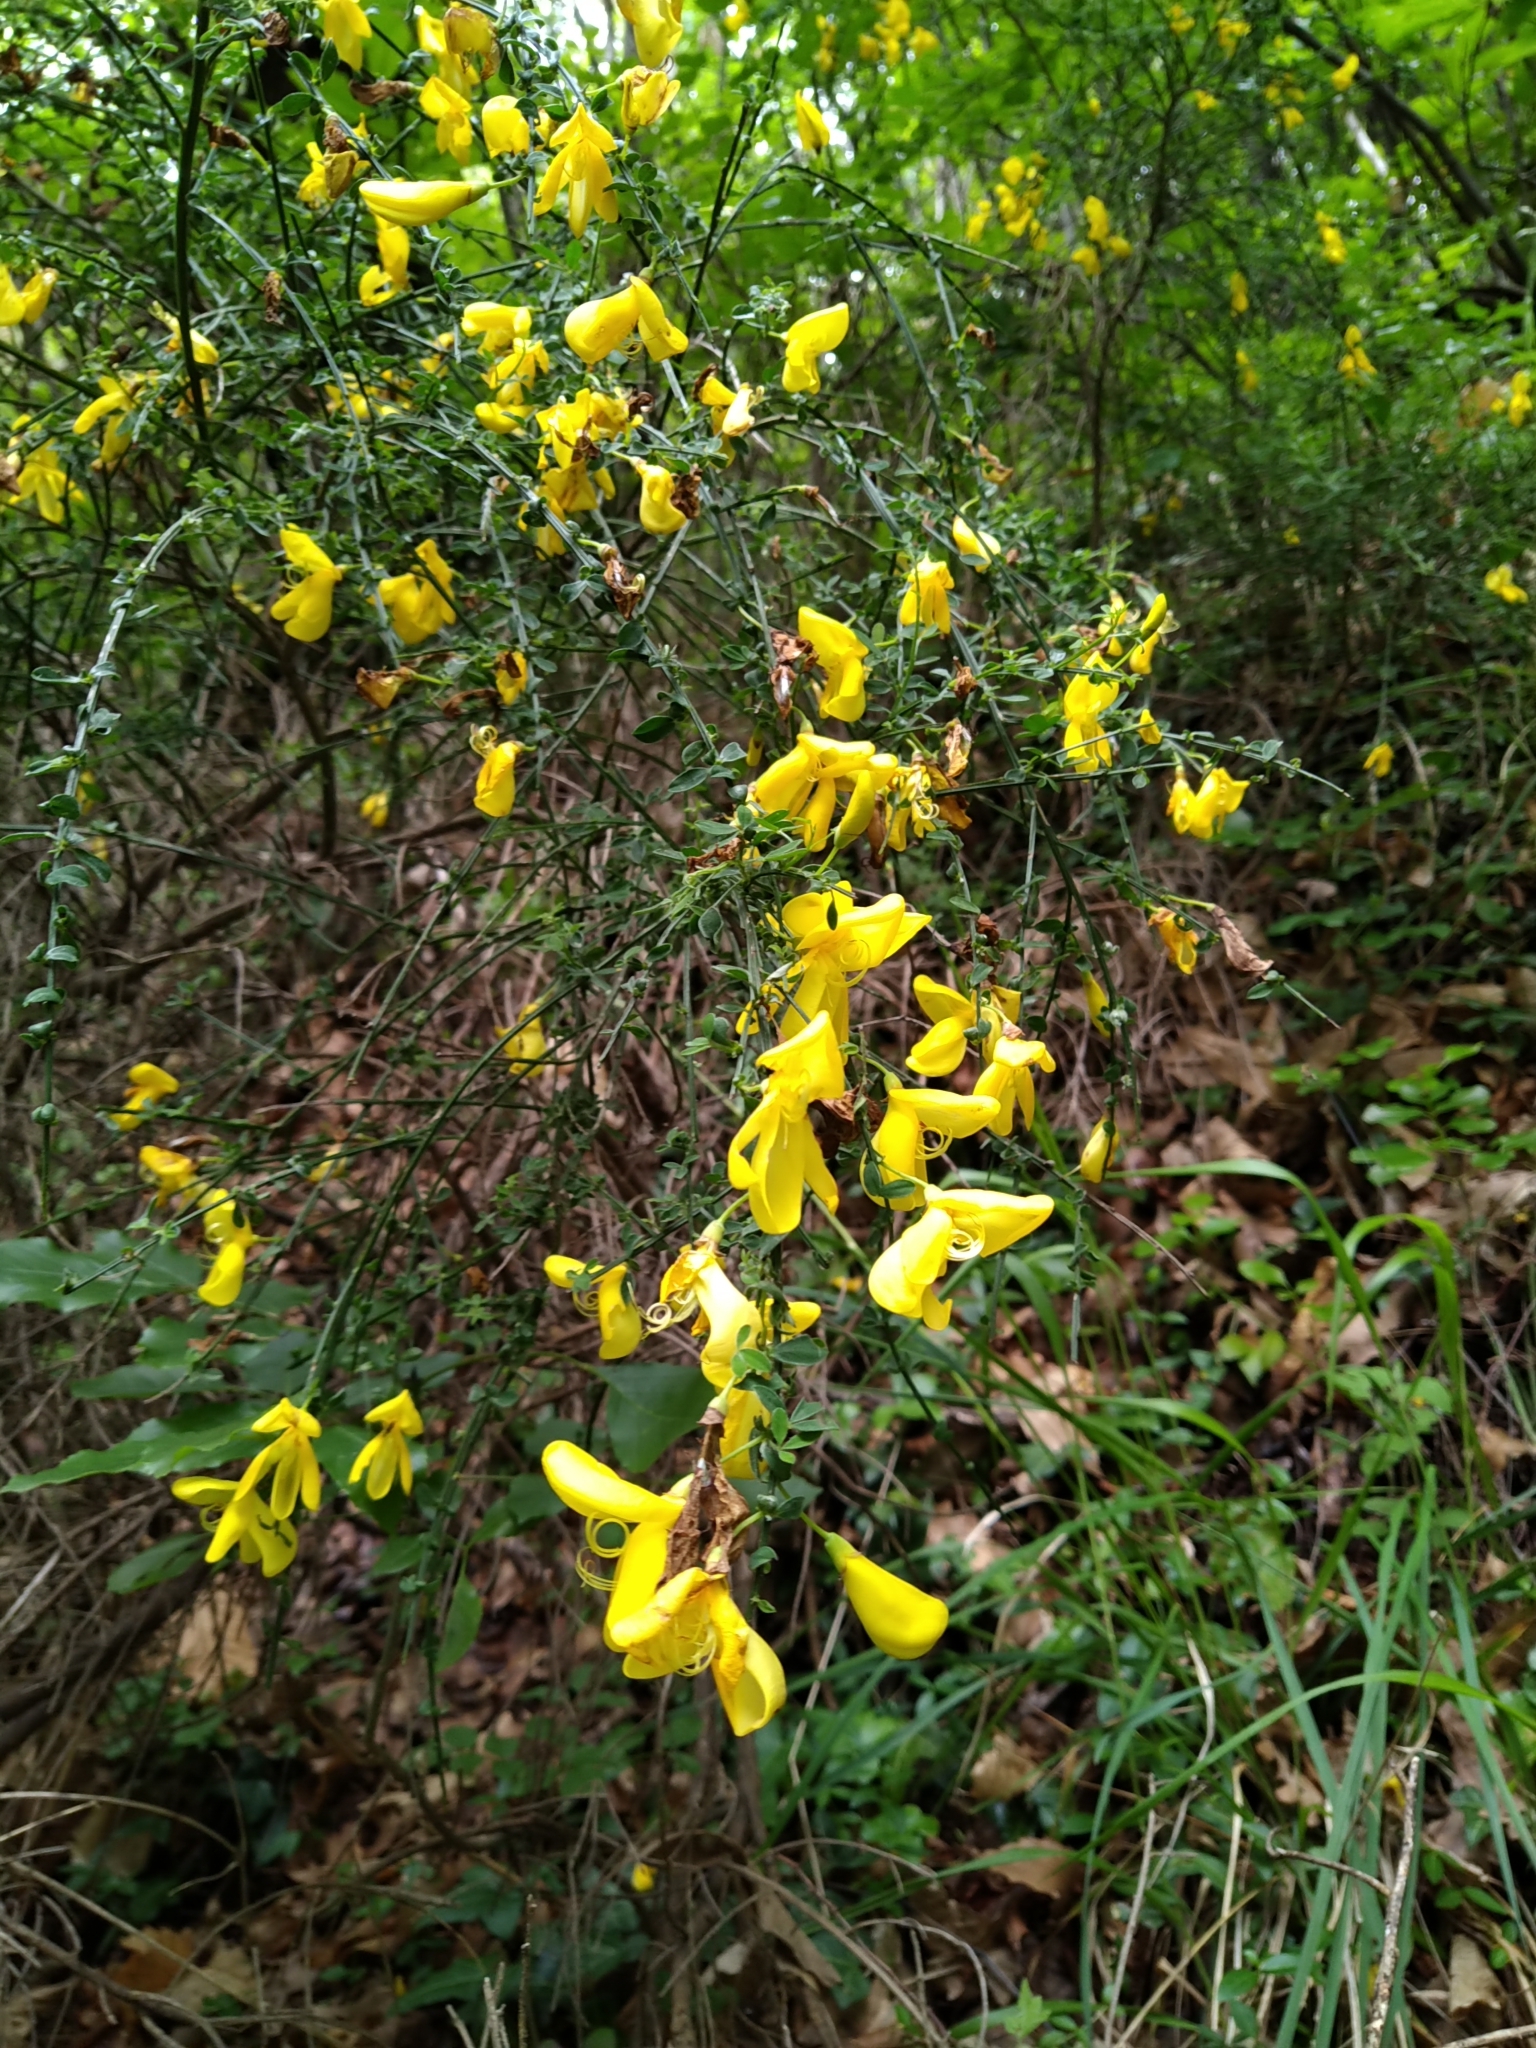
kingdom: Plantae
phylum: Tracheophyta
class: Magnoliopsida
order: Fabales
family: Fabaceae
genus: Cytisus
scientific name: Cytisus scoparius
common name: Scotch broom
